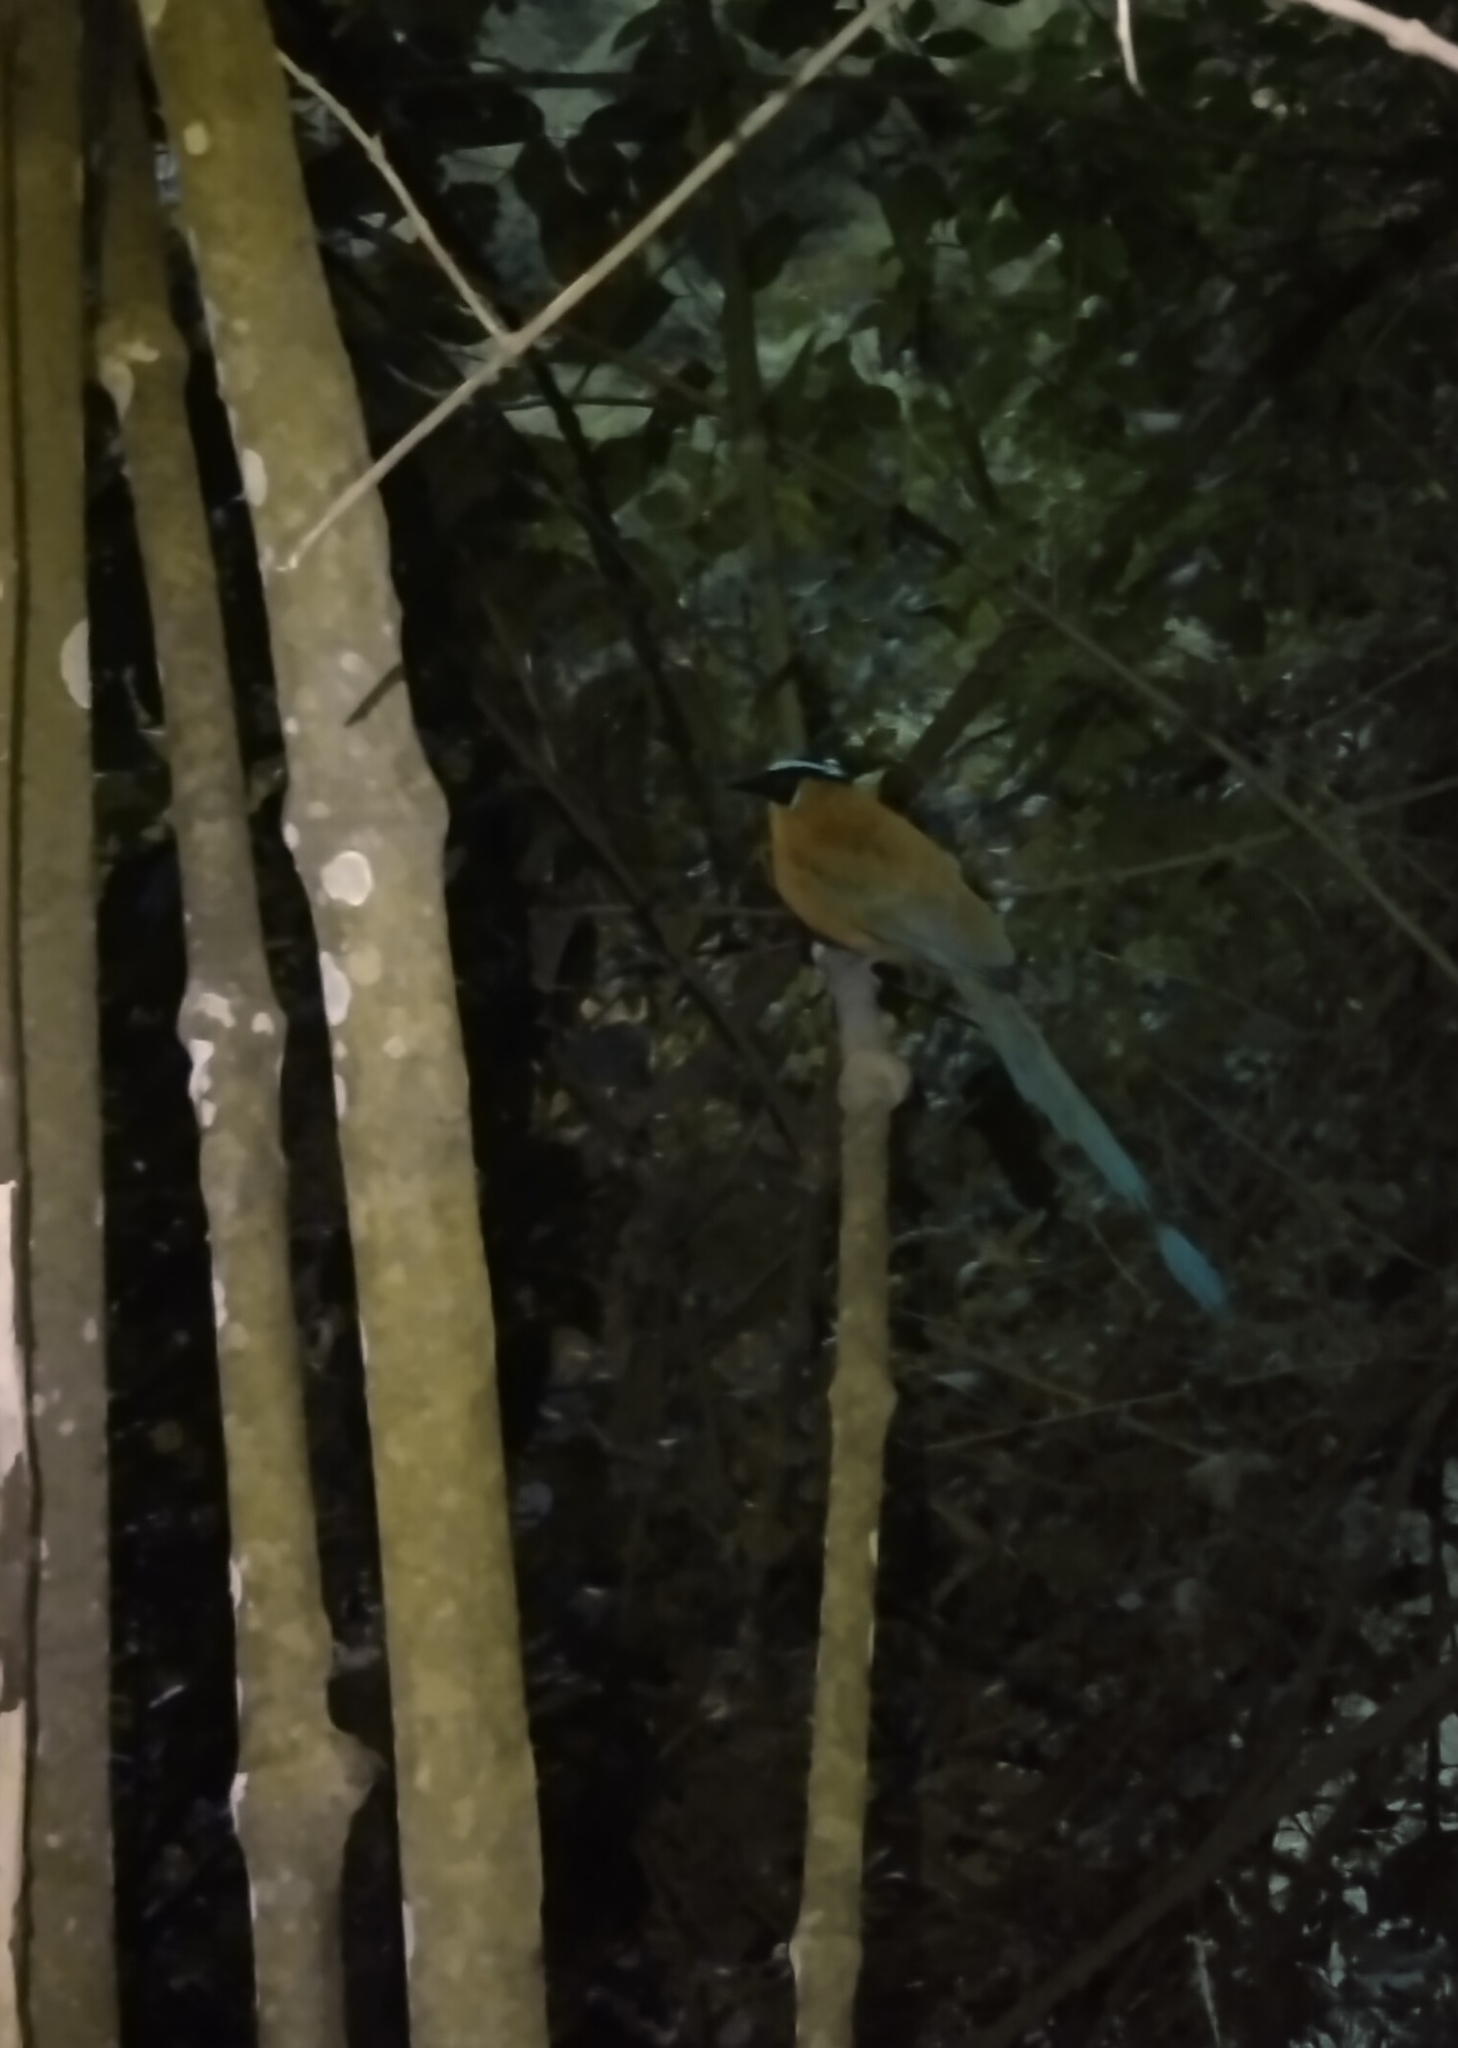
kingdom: Animalia
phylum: Chordata
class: Aves
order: Coraciiformes
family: Momotidae
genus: Momotus
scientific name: Momotus aequatorialis
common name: Andean motmot
